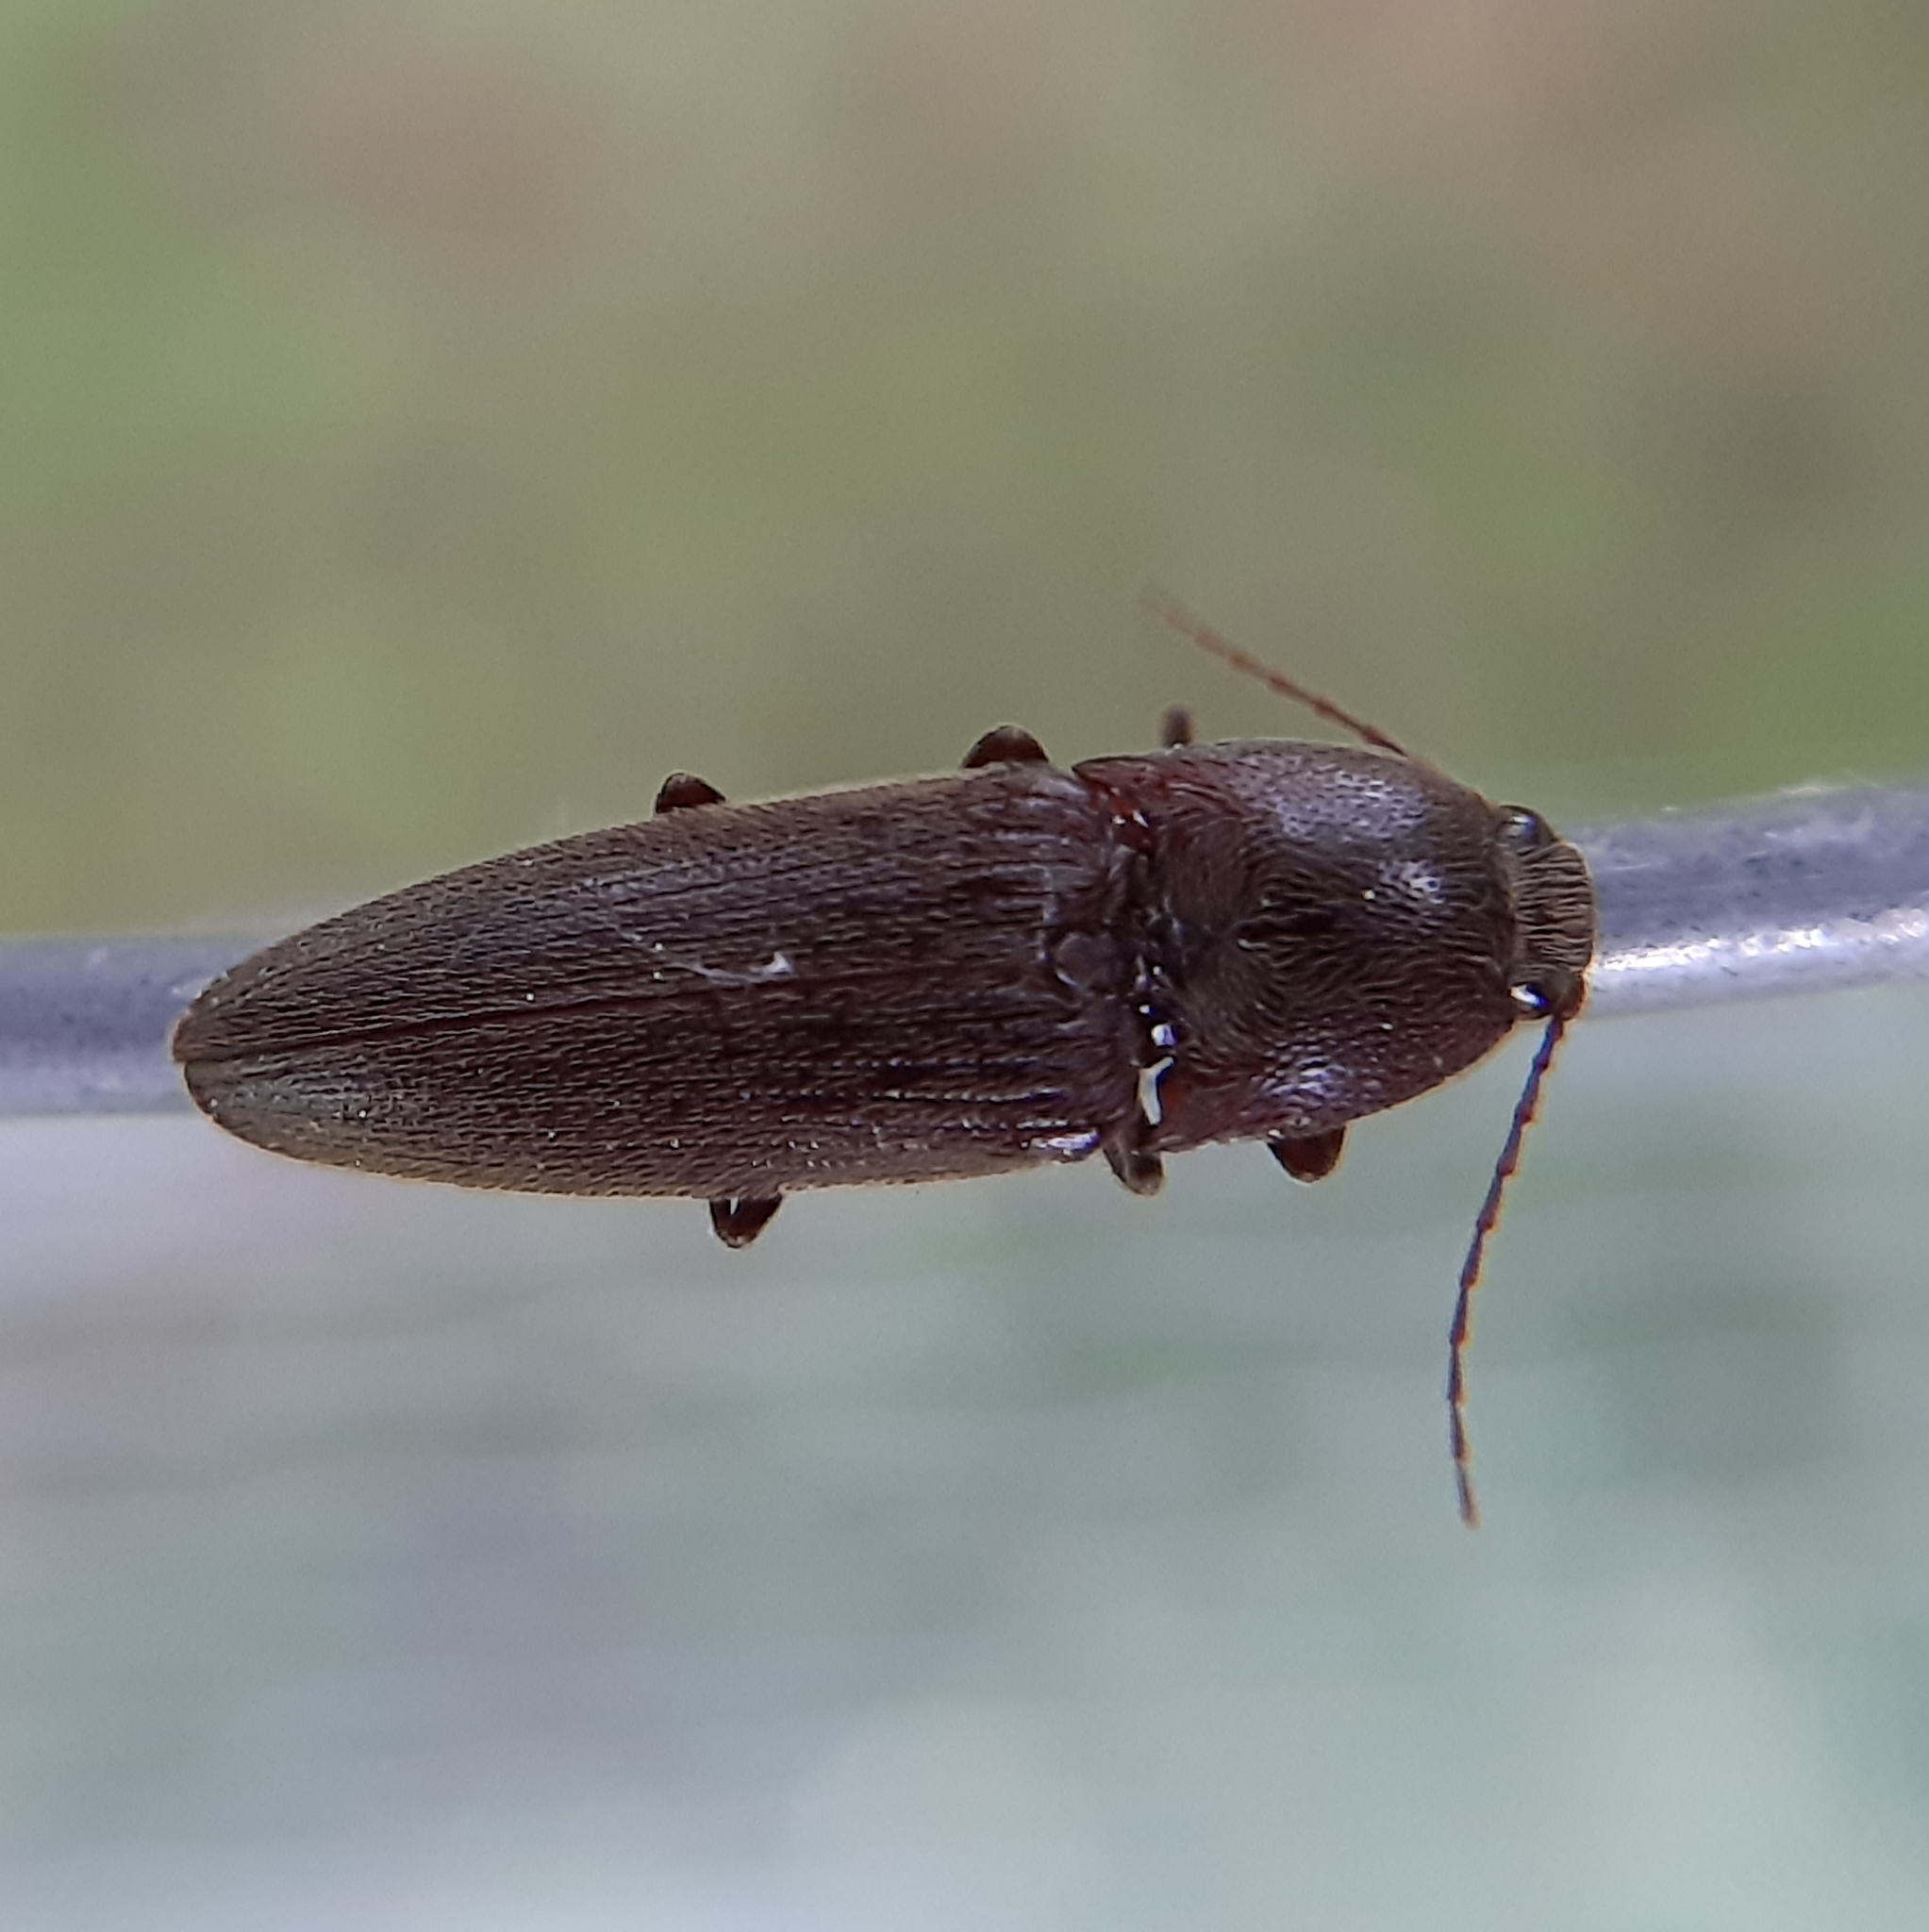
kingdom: Animalia
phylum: Arthropoda
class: Insecta
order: Coleoptera
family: Elateridae
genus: Melanotus
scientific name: Melanotus
